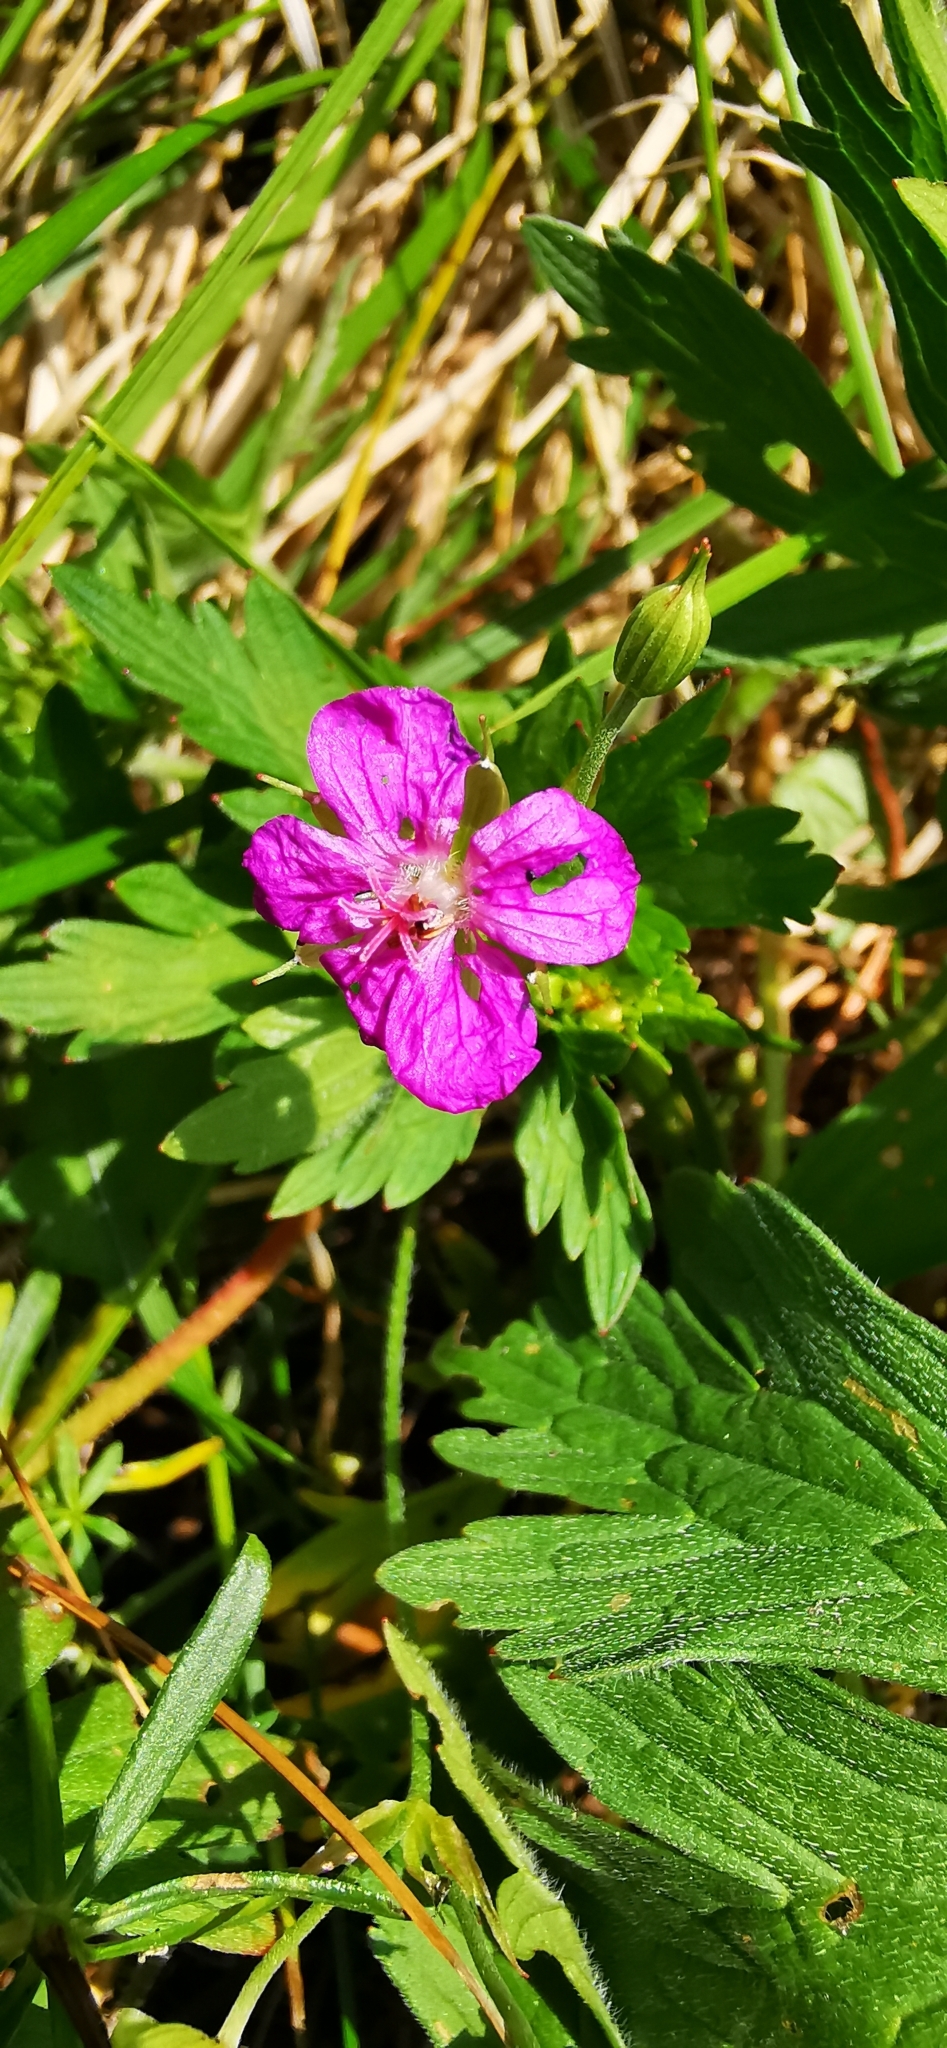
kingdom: Plantae
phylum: Tracheophyta
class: Magnoliopsida
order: Geraniales
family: Geraniaceae
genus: Geranium
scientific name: Geranium palustre
